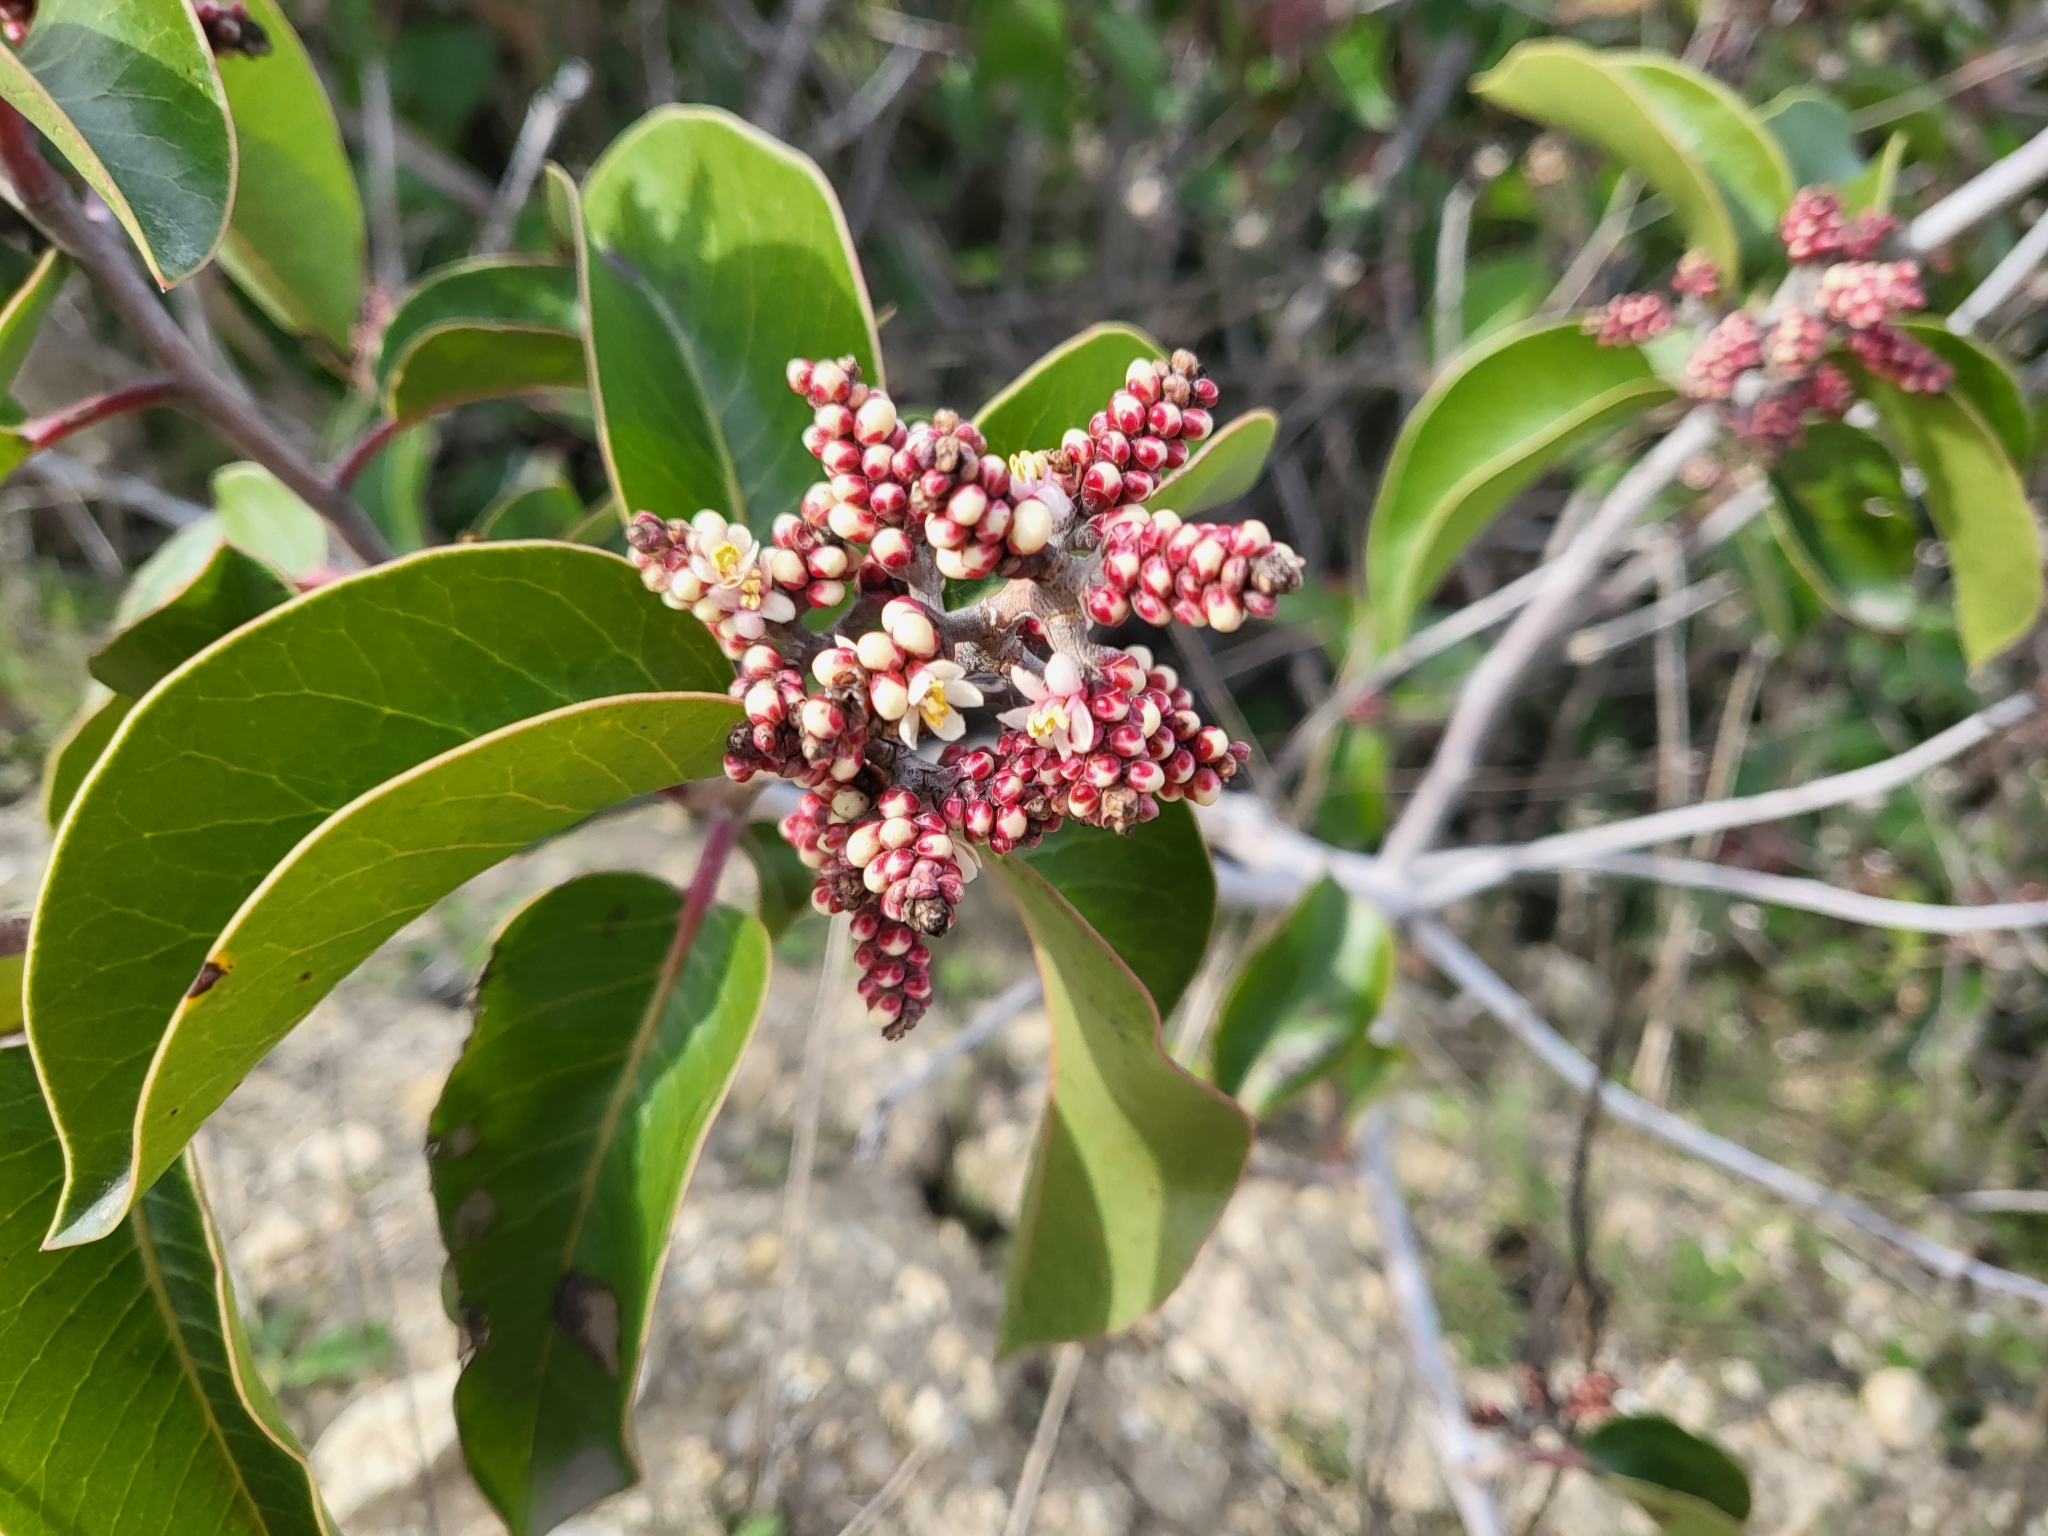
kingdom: Plantae
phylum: Tracheophyta
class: Magnoliopsida
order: Sapindales
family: Anacardiaceae
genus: Rhus
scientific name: Rhus ovata
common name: Sugar sumac
